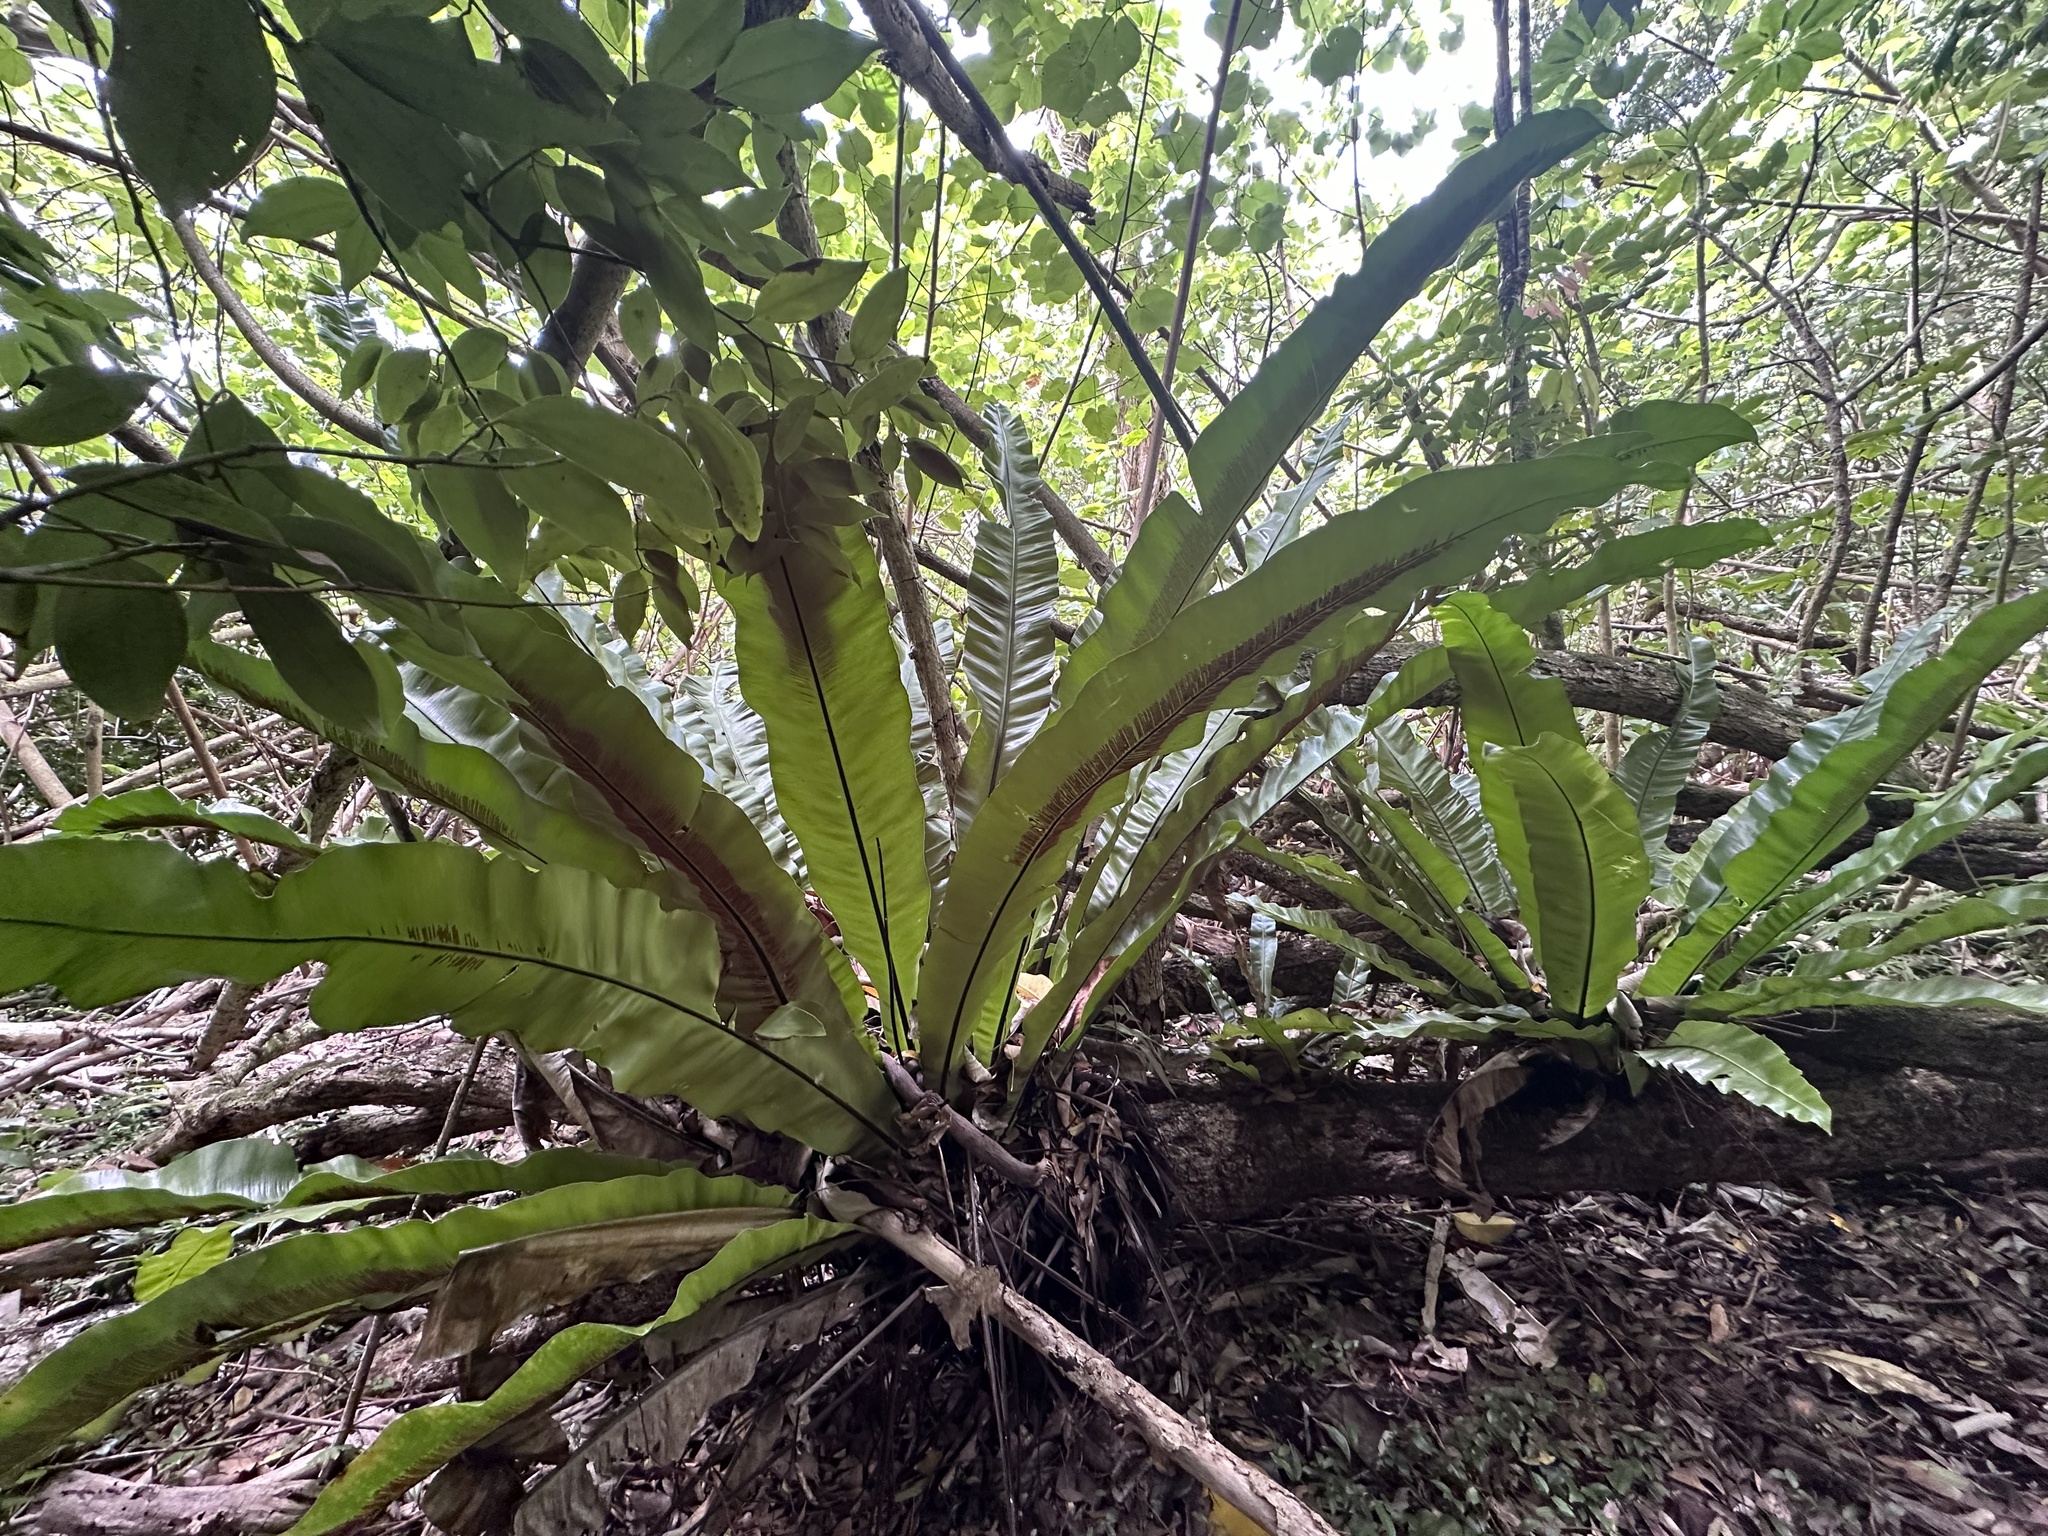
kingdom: Plantae
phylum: Tracheophyta
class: Polypodiopsida
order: Polypodiales
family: Aspleniaceae
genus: Asplenium
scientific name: Asplenium nidus
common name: Bird's-nest fern
